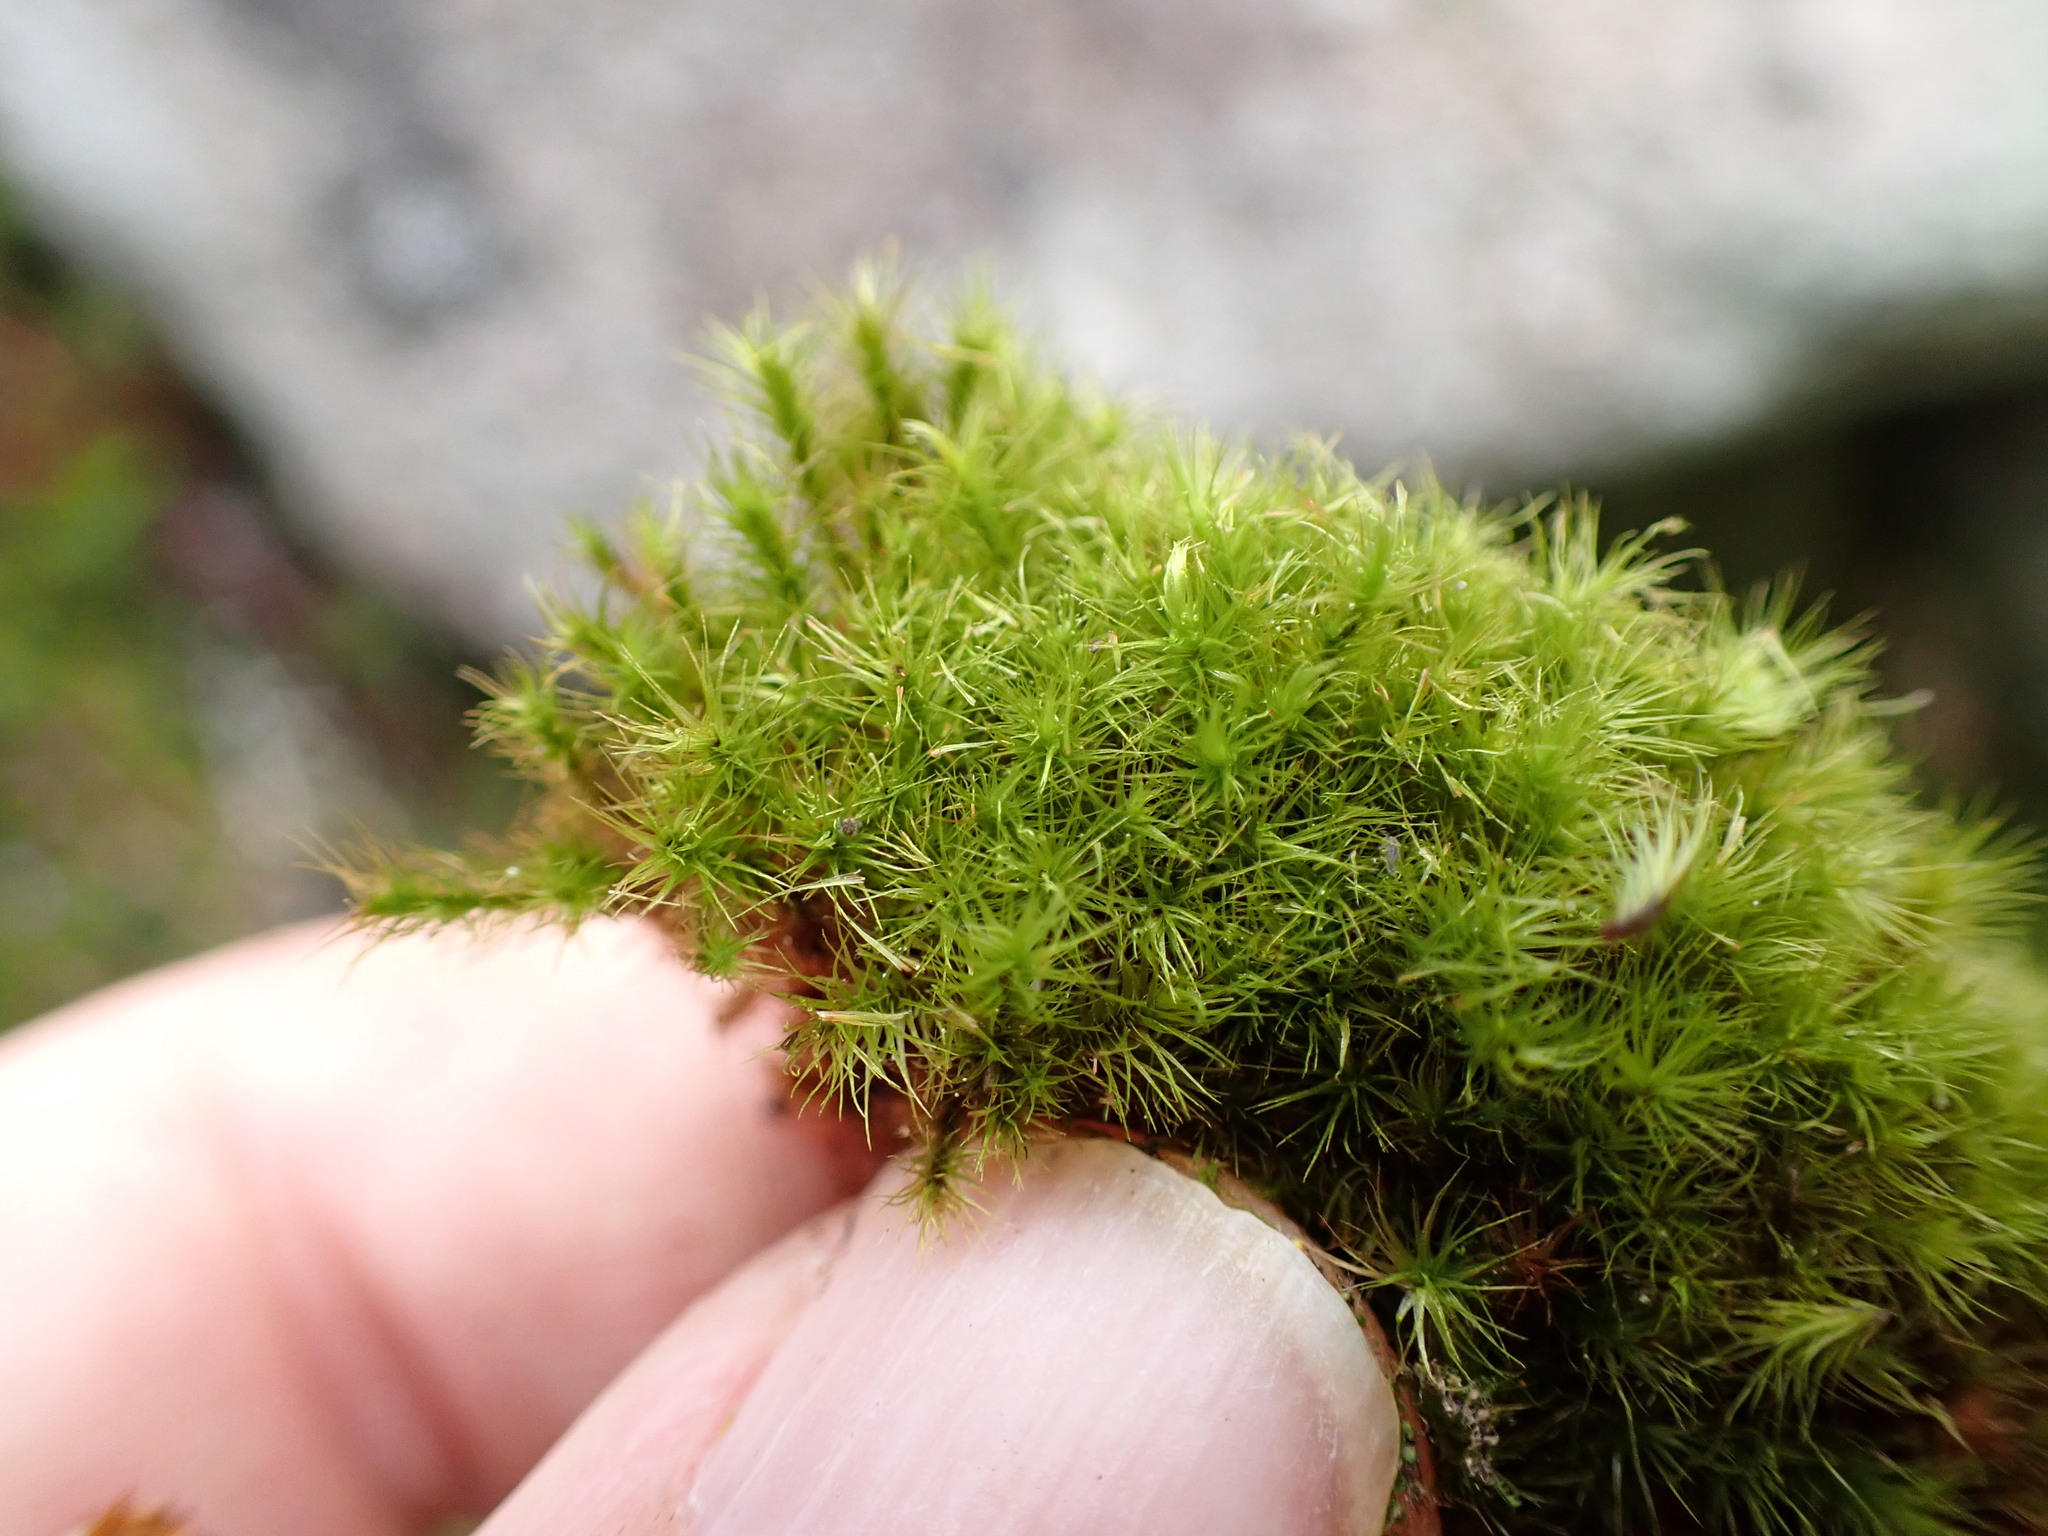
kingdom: Plantae
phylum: Bryophyta
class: Bryopsida
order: Bartramiales
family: Bartramiaceae
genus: Anacolia
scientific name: Anacolia menziesii
